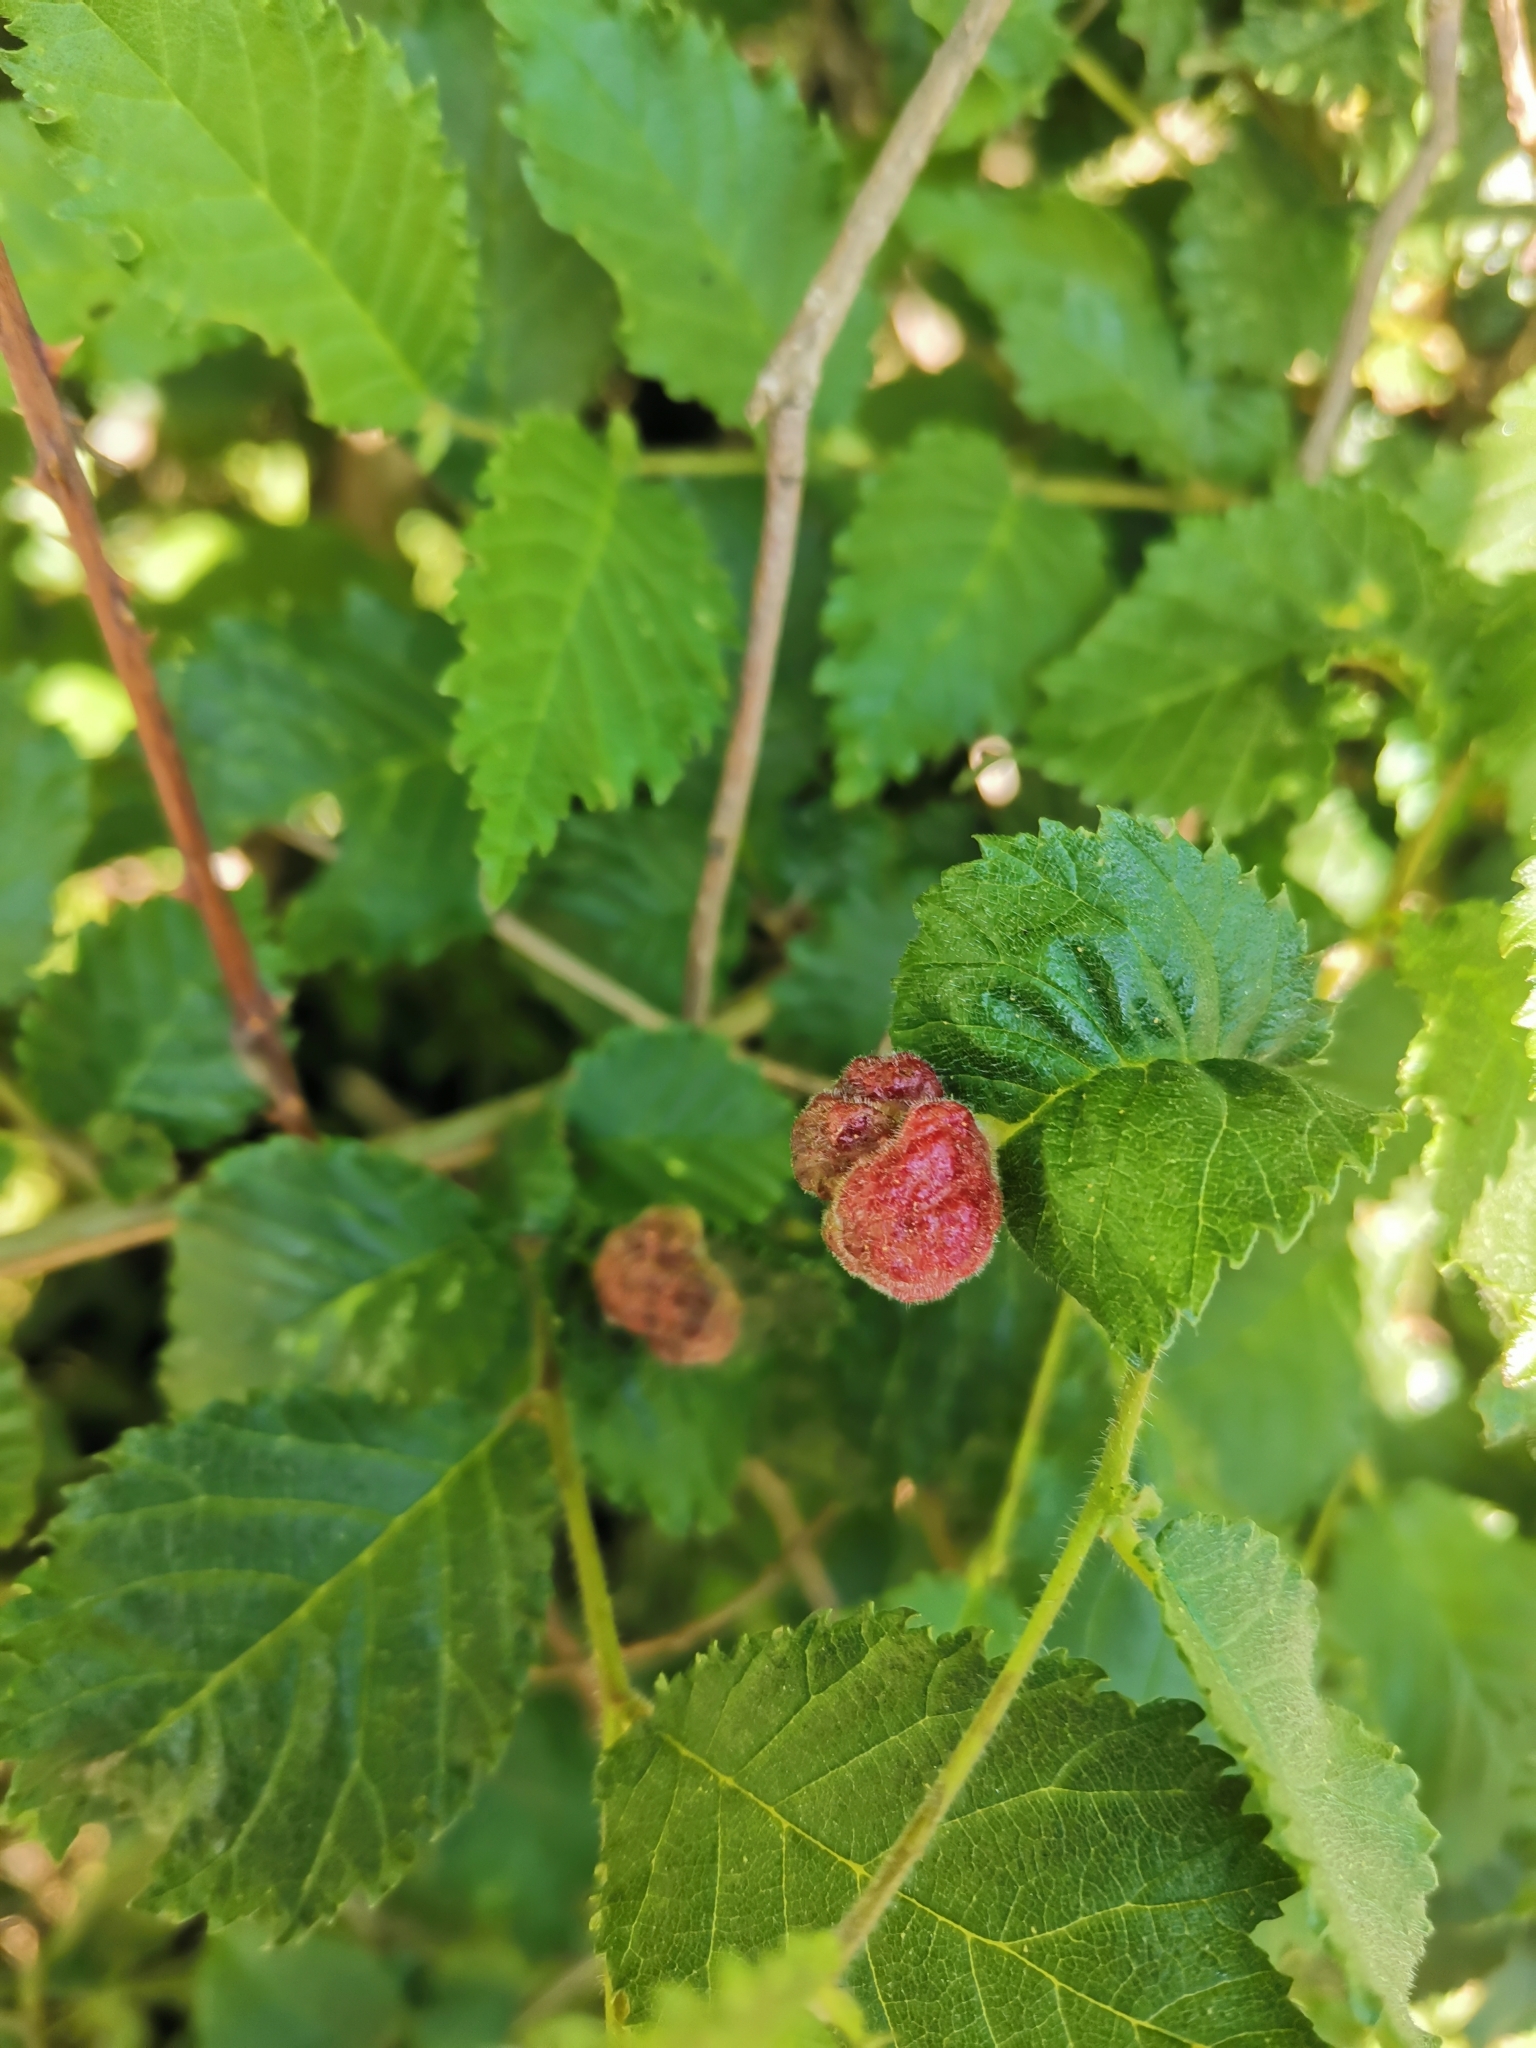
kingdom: Animalia
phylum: Arthropoda
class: Insecta
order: Hemiptera
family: Aphididae
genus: Tetraneura
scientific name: Tetraneura caerulescens
